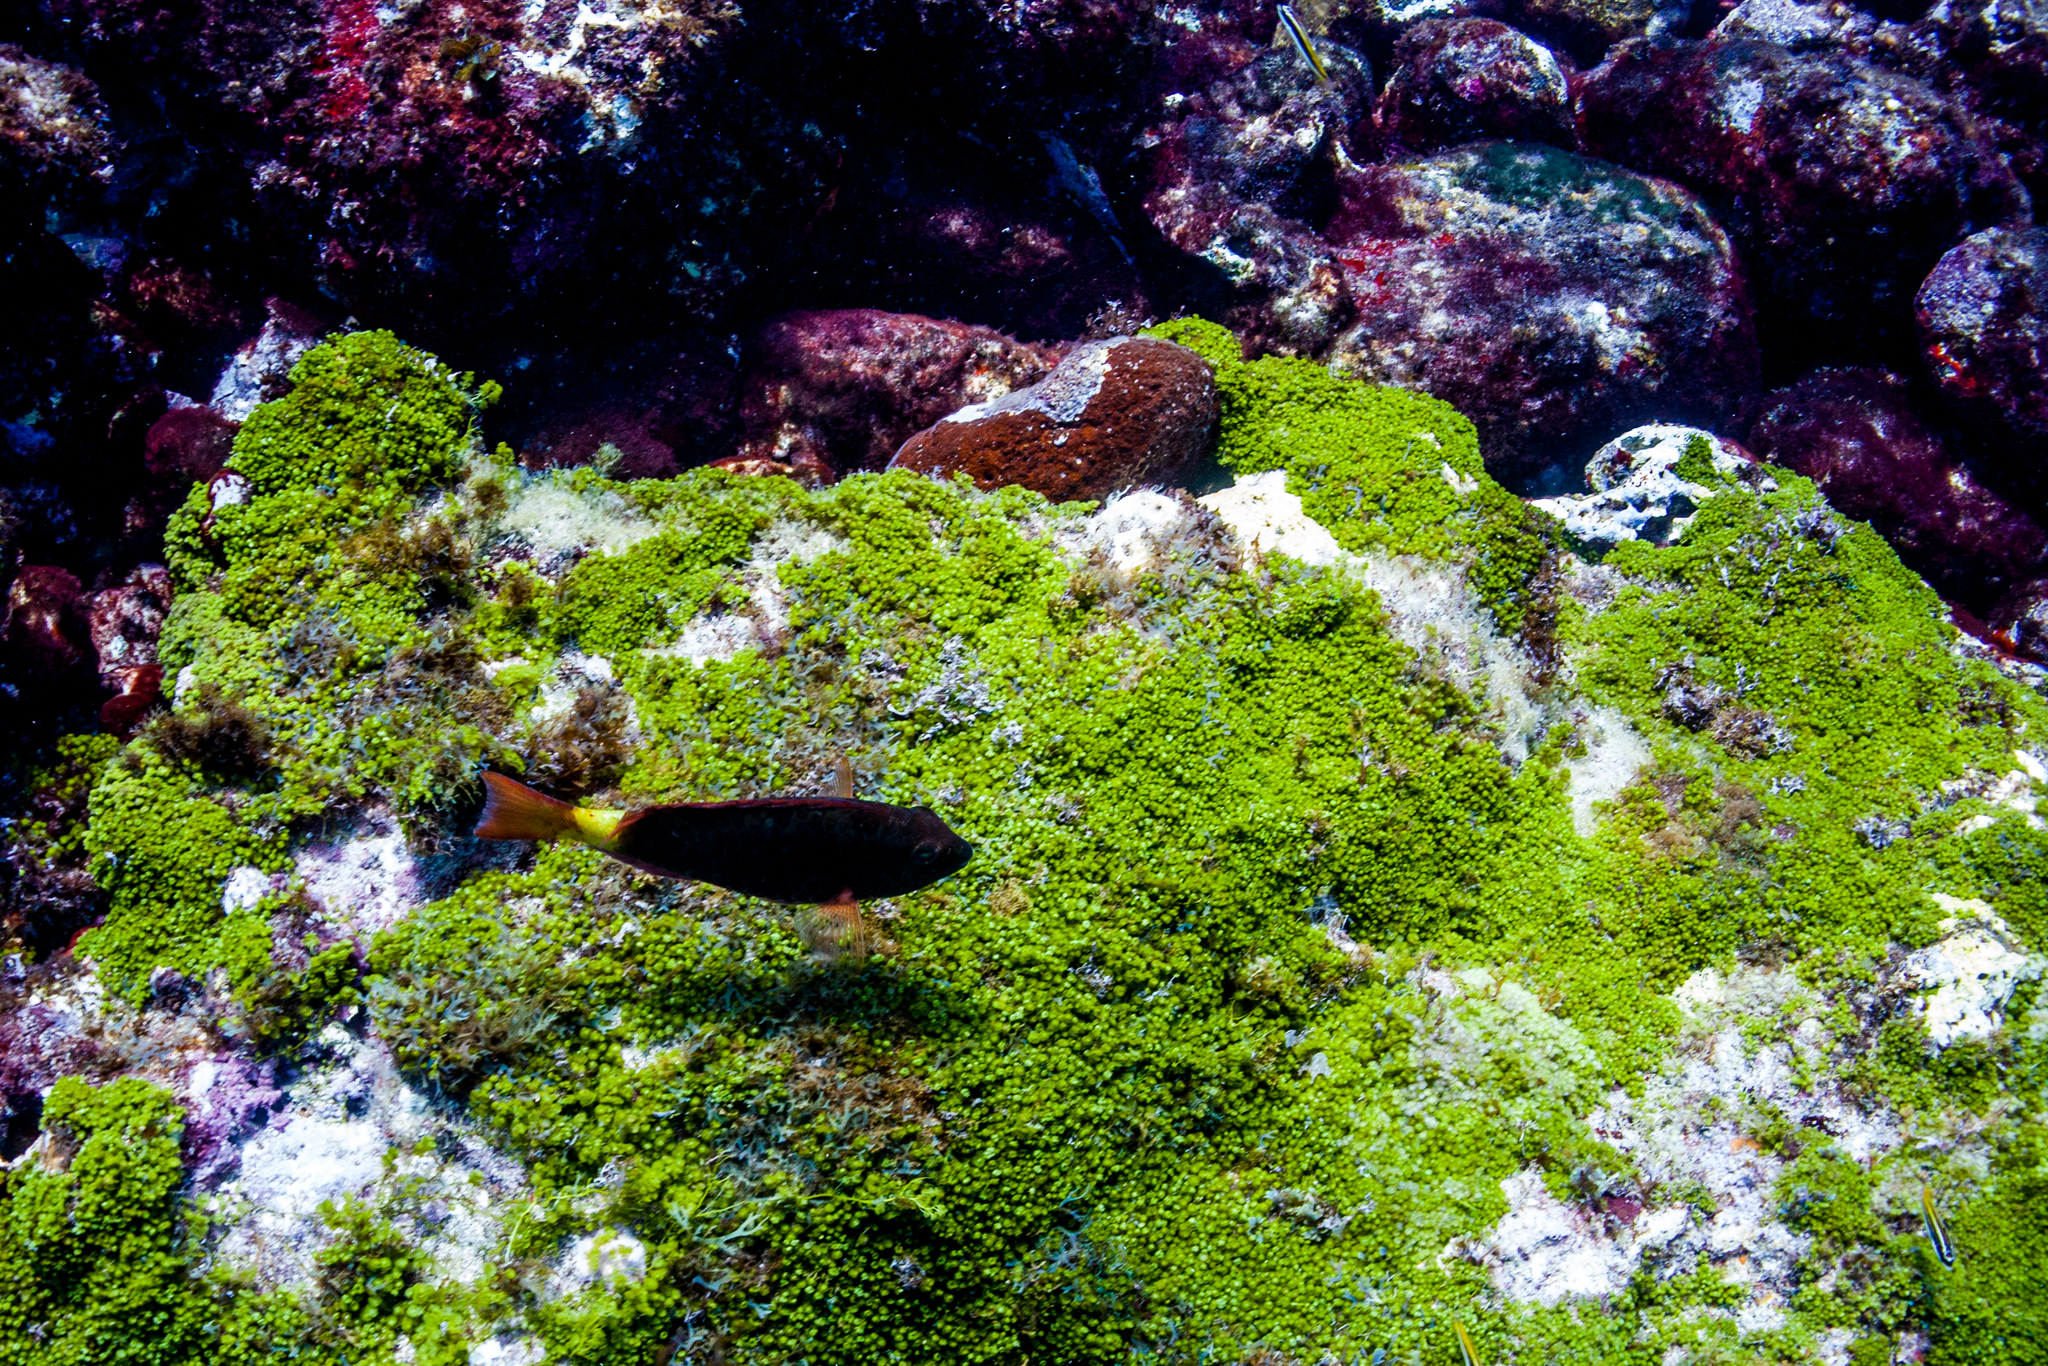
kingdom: Animalia
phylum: Chordata
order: Perciformes
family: Scaridae
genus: Sparisoma
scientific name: Sparisoma frondosum
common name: Agassiz's parrotfish
